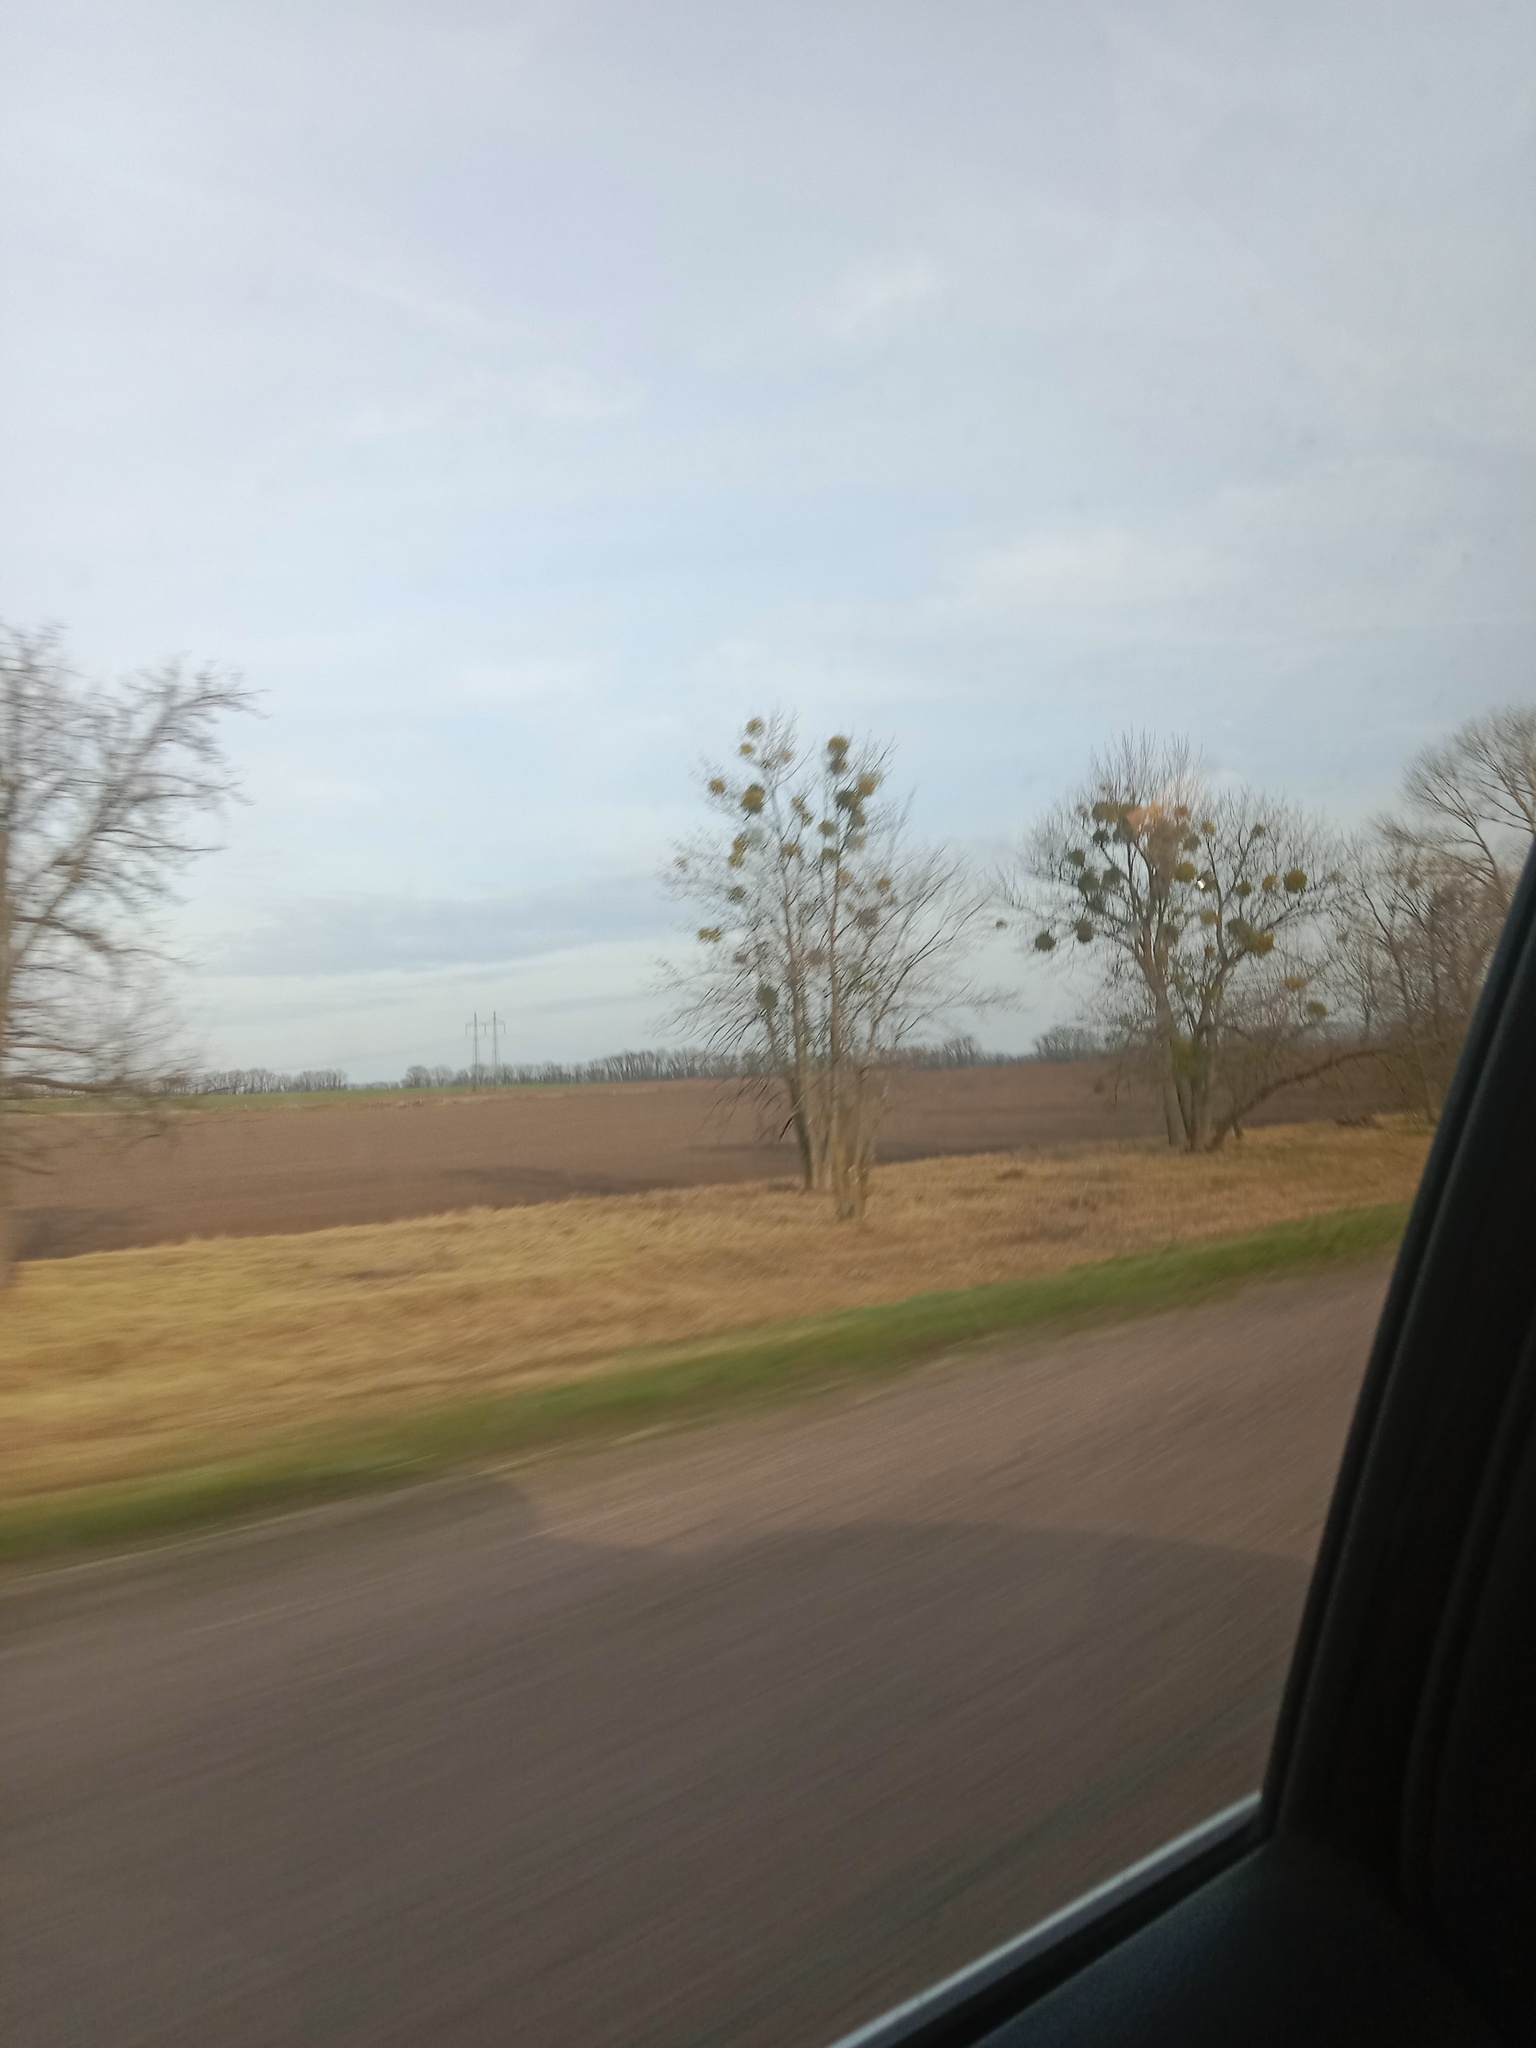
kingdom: Plantae
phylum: Tracheophyta
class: Magnoliopsida
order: Santalales
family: Viscaceae
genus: Viscum
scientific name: Viscum album
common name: Mistletoe
